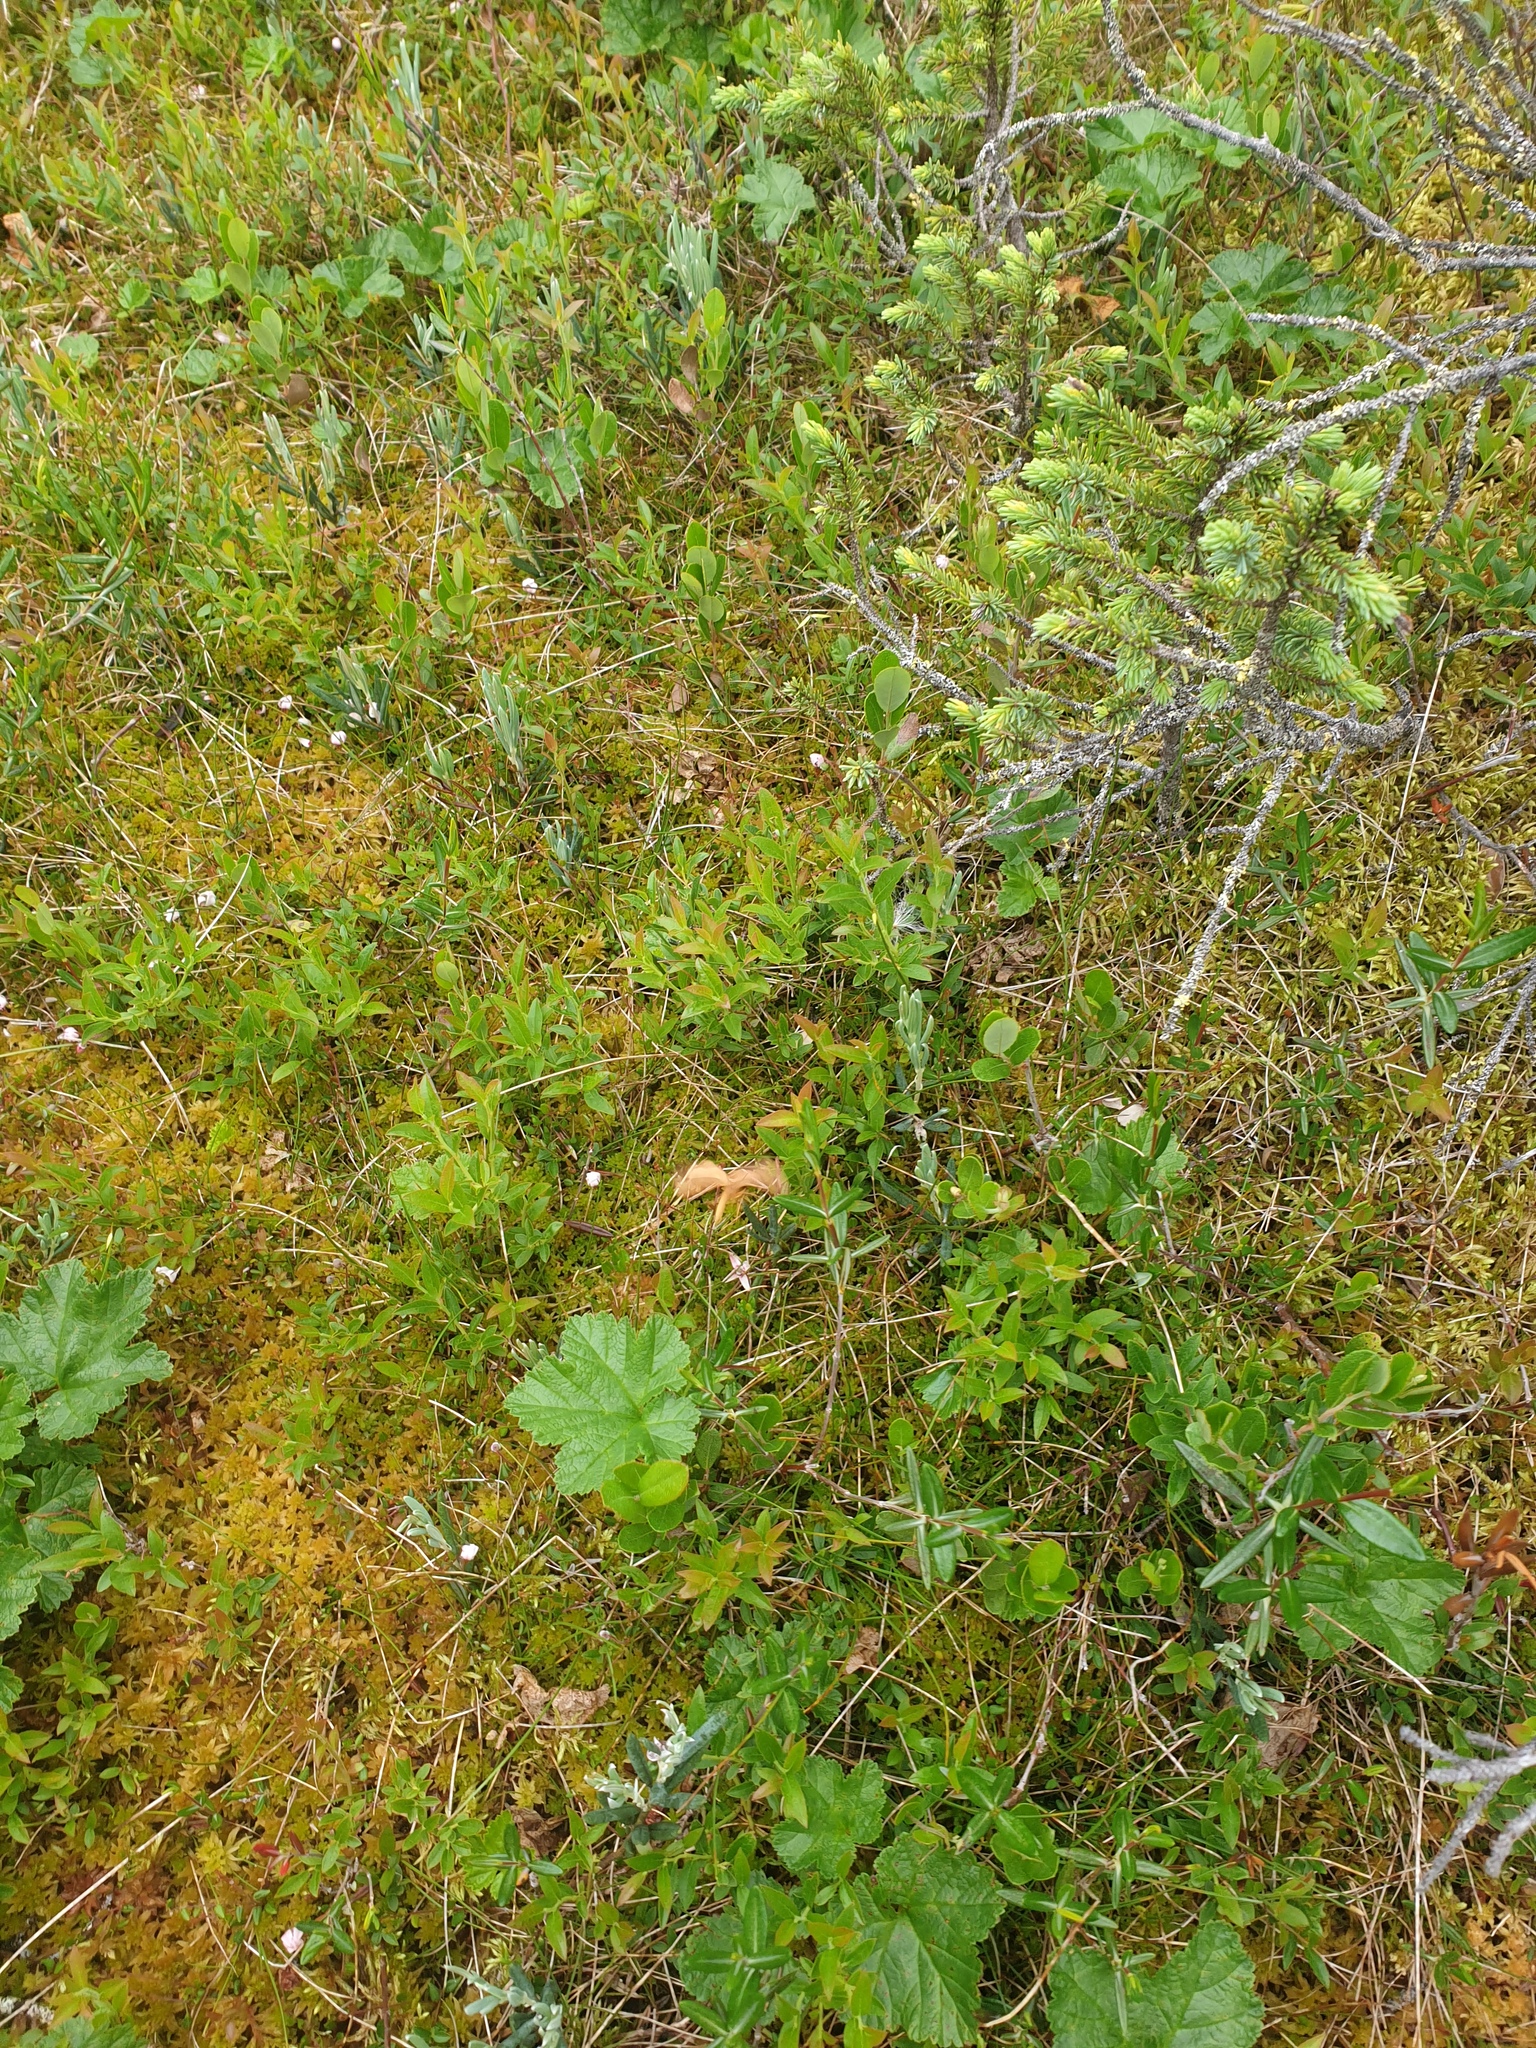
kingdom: Plantae
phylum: Tracheophyta
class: Magnoliopsida
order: Rosales
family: Rosaceae
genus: Rubus
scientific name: Rubus chamaemorus
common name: Cloudberry
